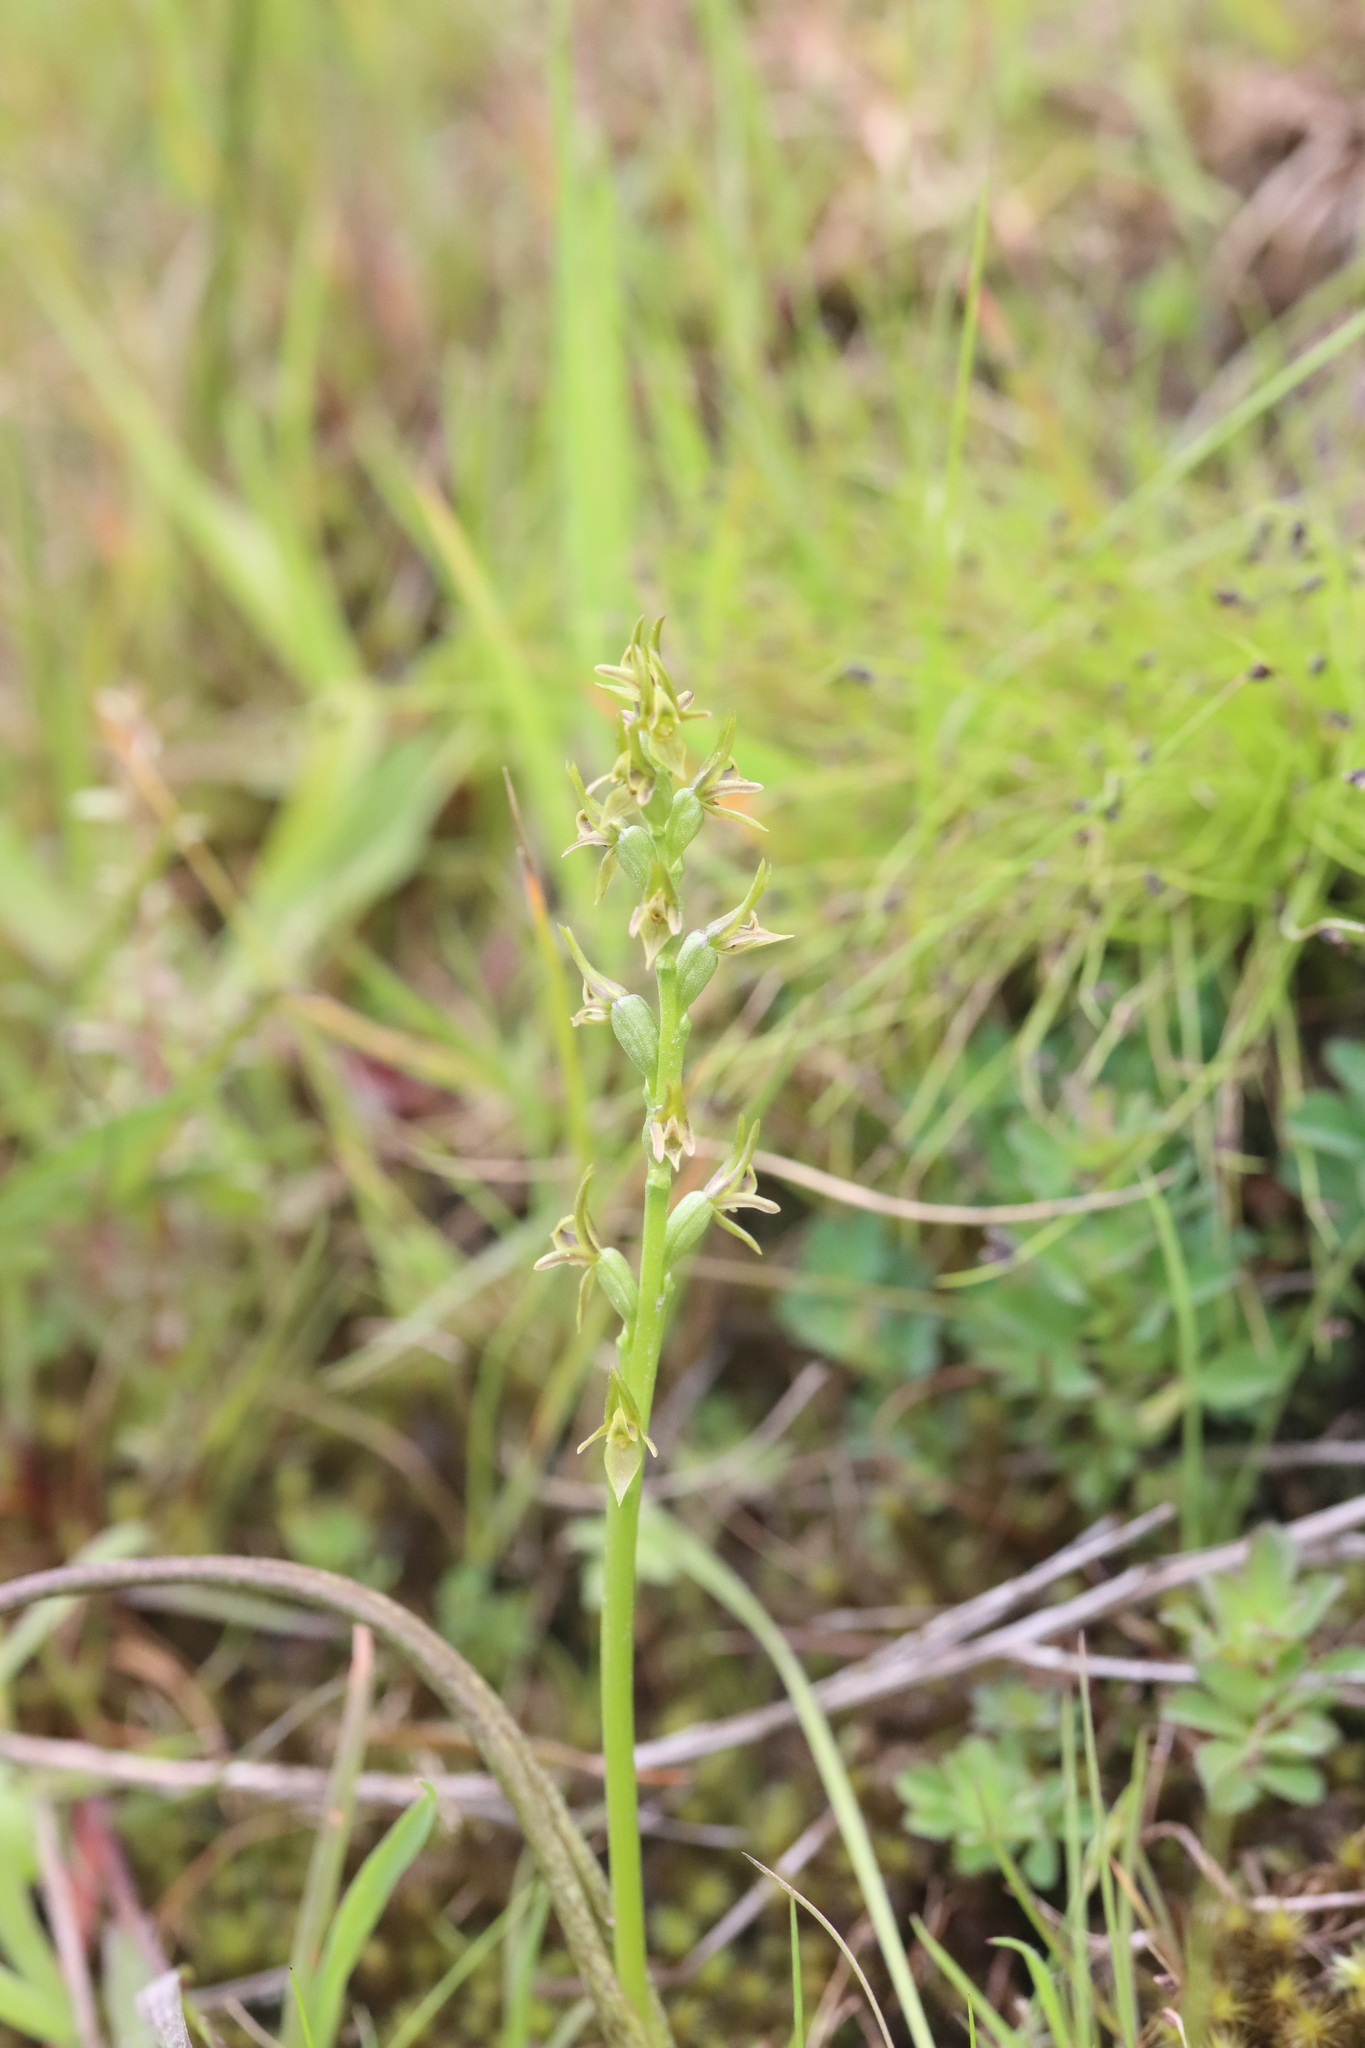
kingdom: Plantae
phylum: Tracheophyta
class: Liliopsida
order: Asparagales
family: Orchidaceae
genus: Prasophyllum
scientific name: Prasophyllum colensoi
